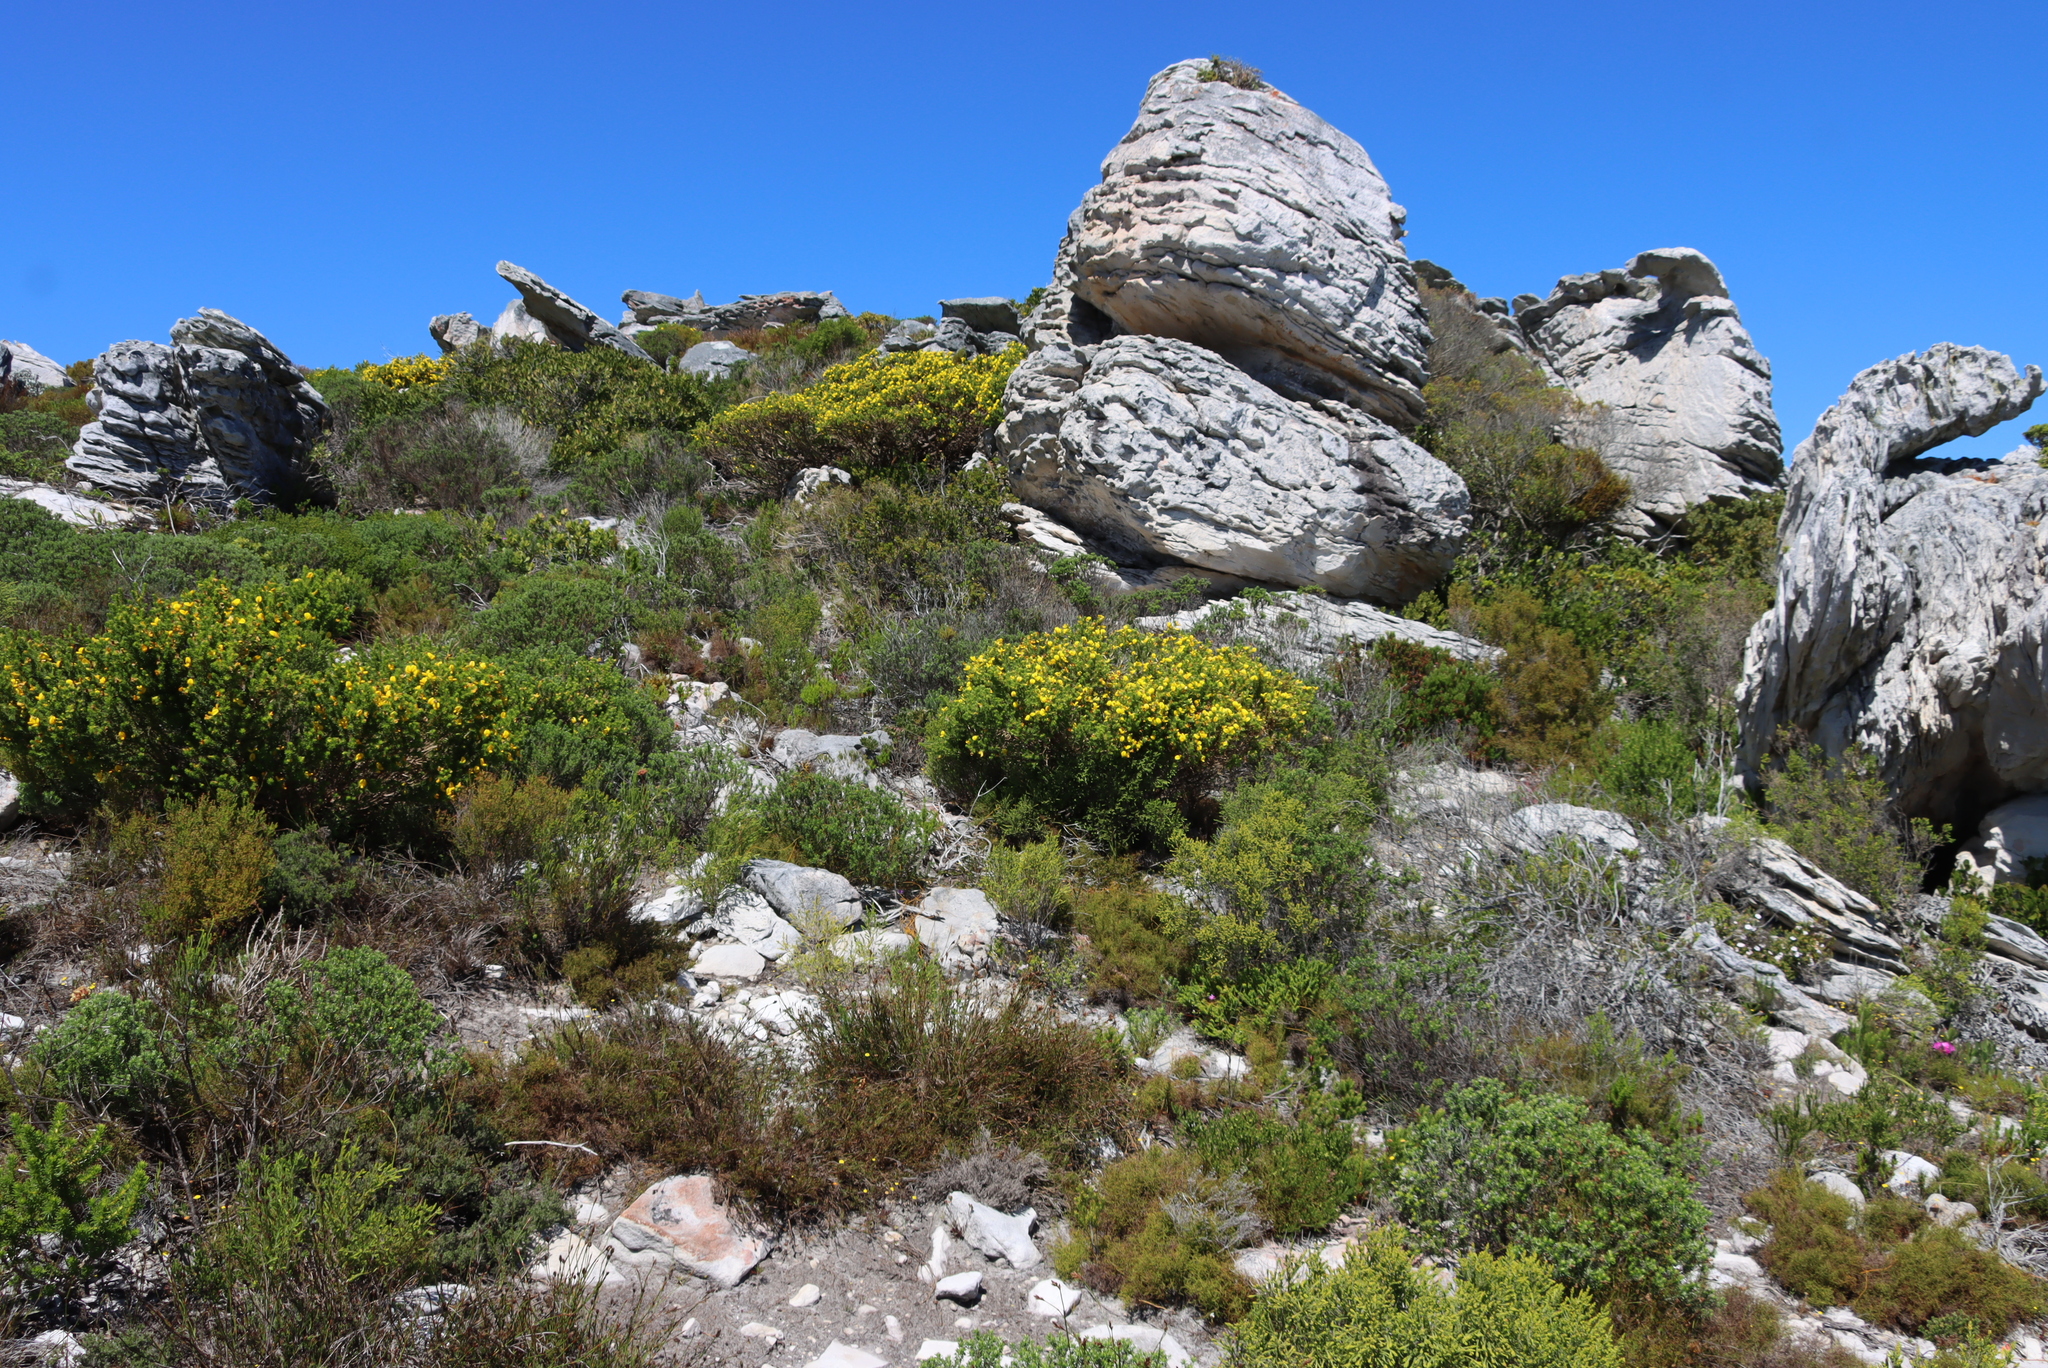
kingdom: Plantae
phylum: Tracheophyta
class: Magnoliopsida
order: Fabales
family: Fabaceae
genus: Aspalathus
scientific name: Aspalathus capensis
